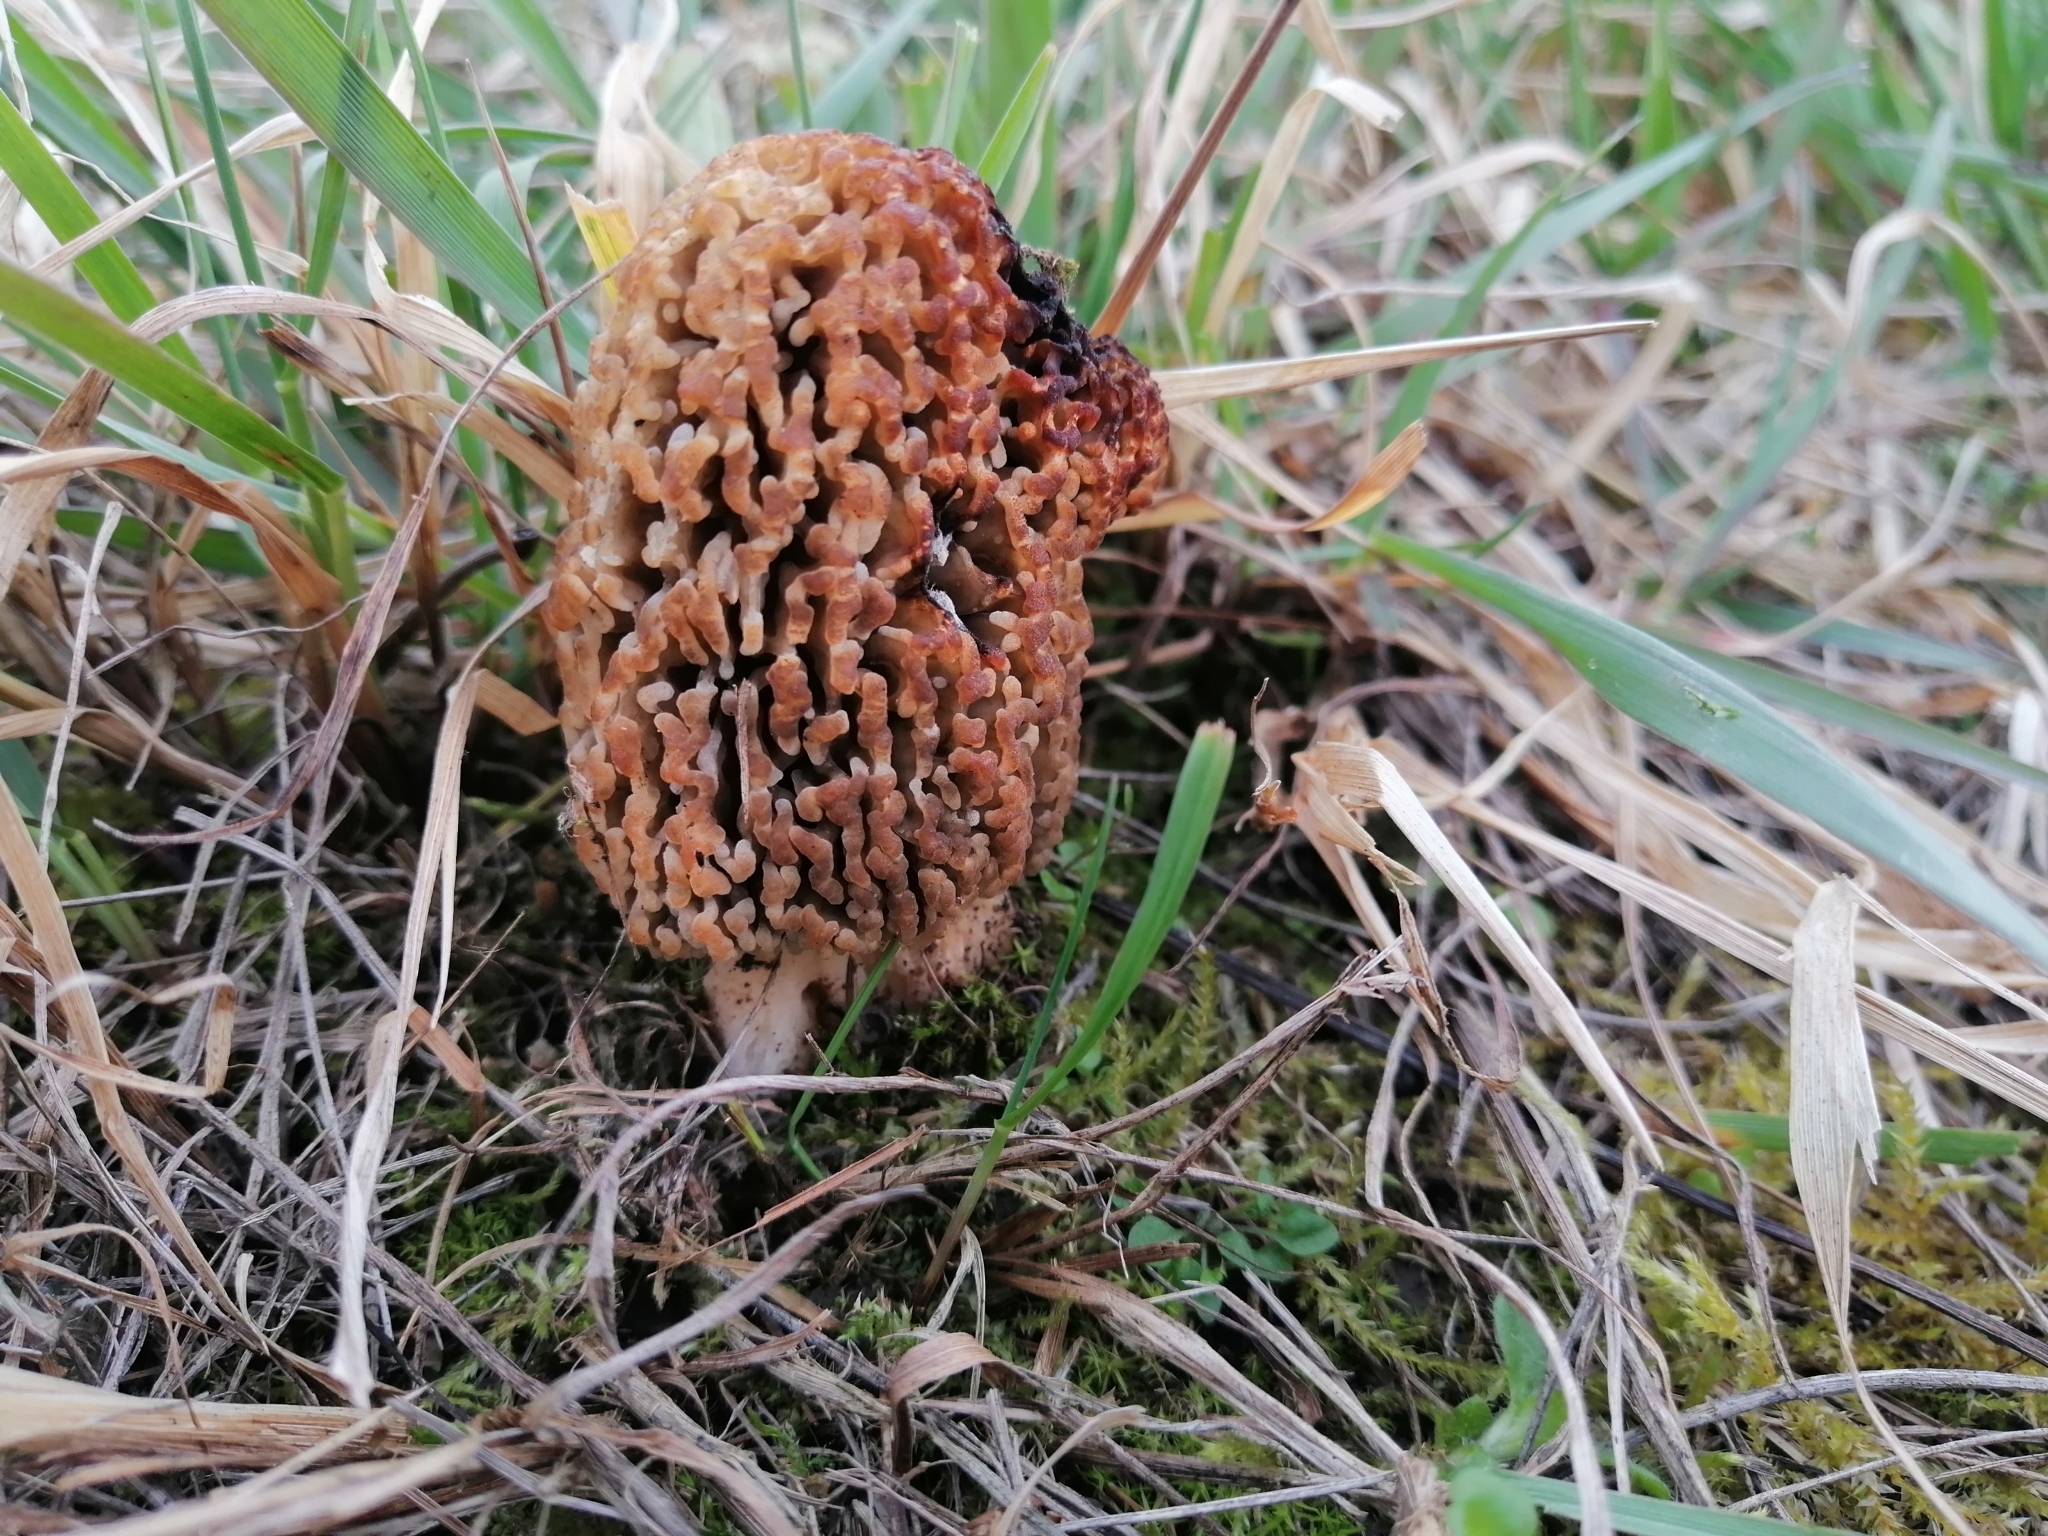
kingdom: Fungi
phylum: Ascomycota
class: Pezizomycetes
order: Pezizales
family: Morchellaceae
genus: Morchella
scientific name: Morchella steppicola
